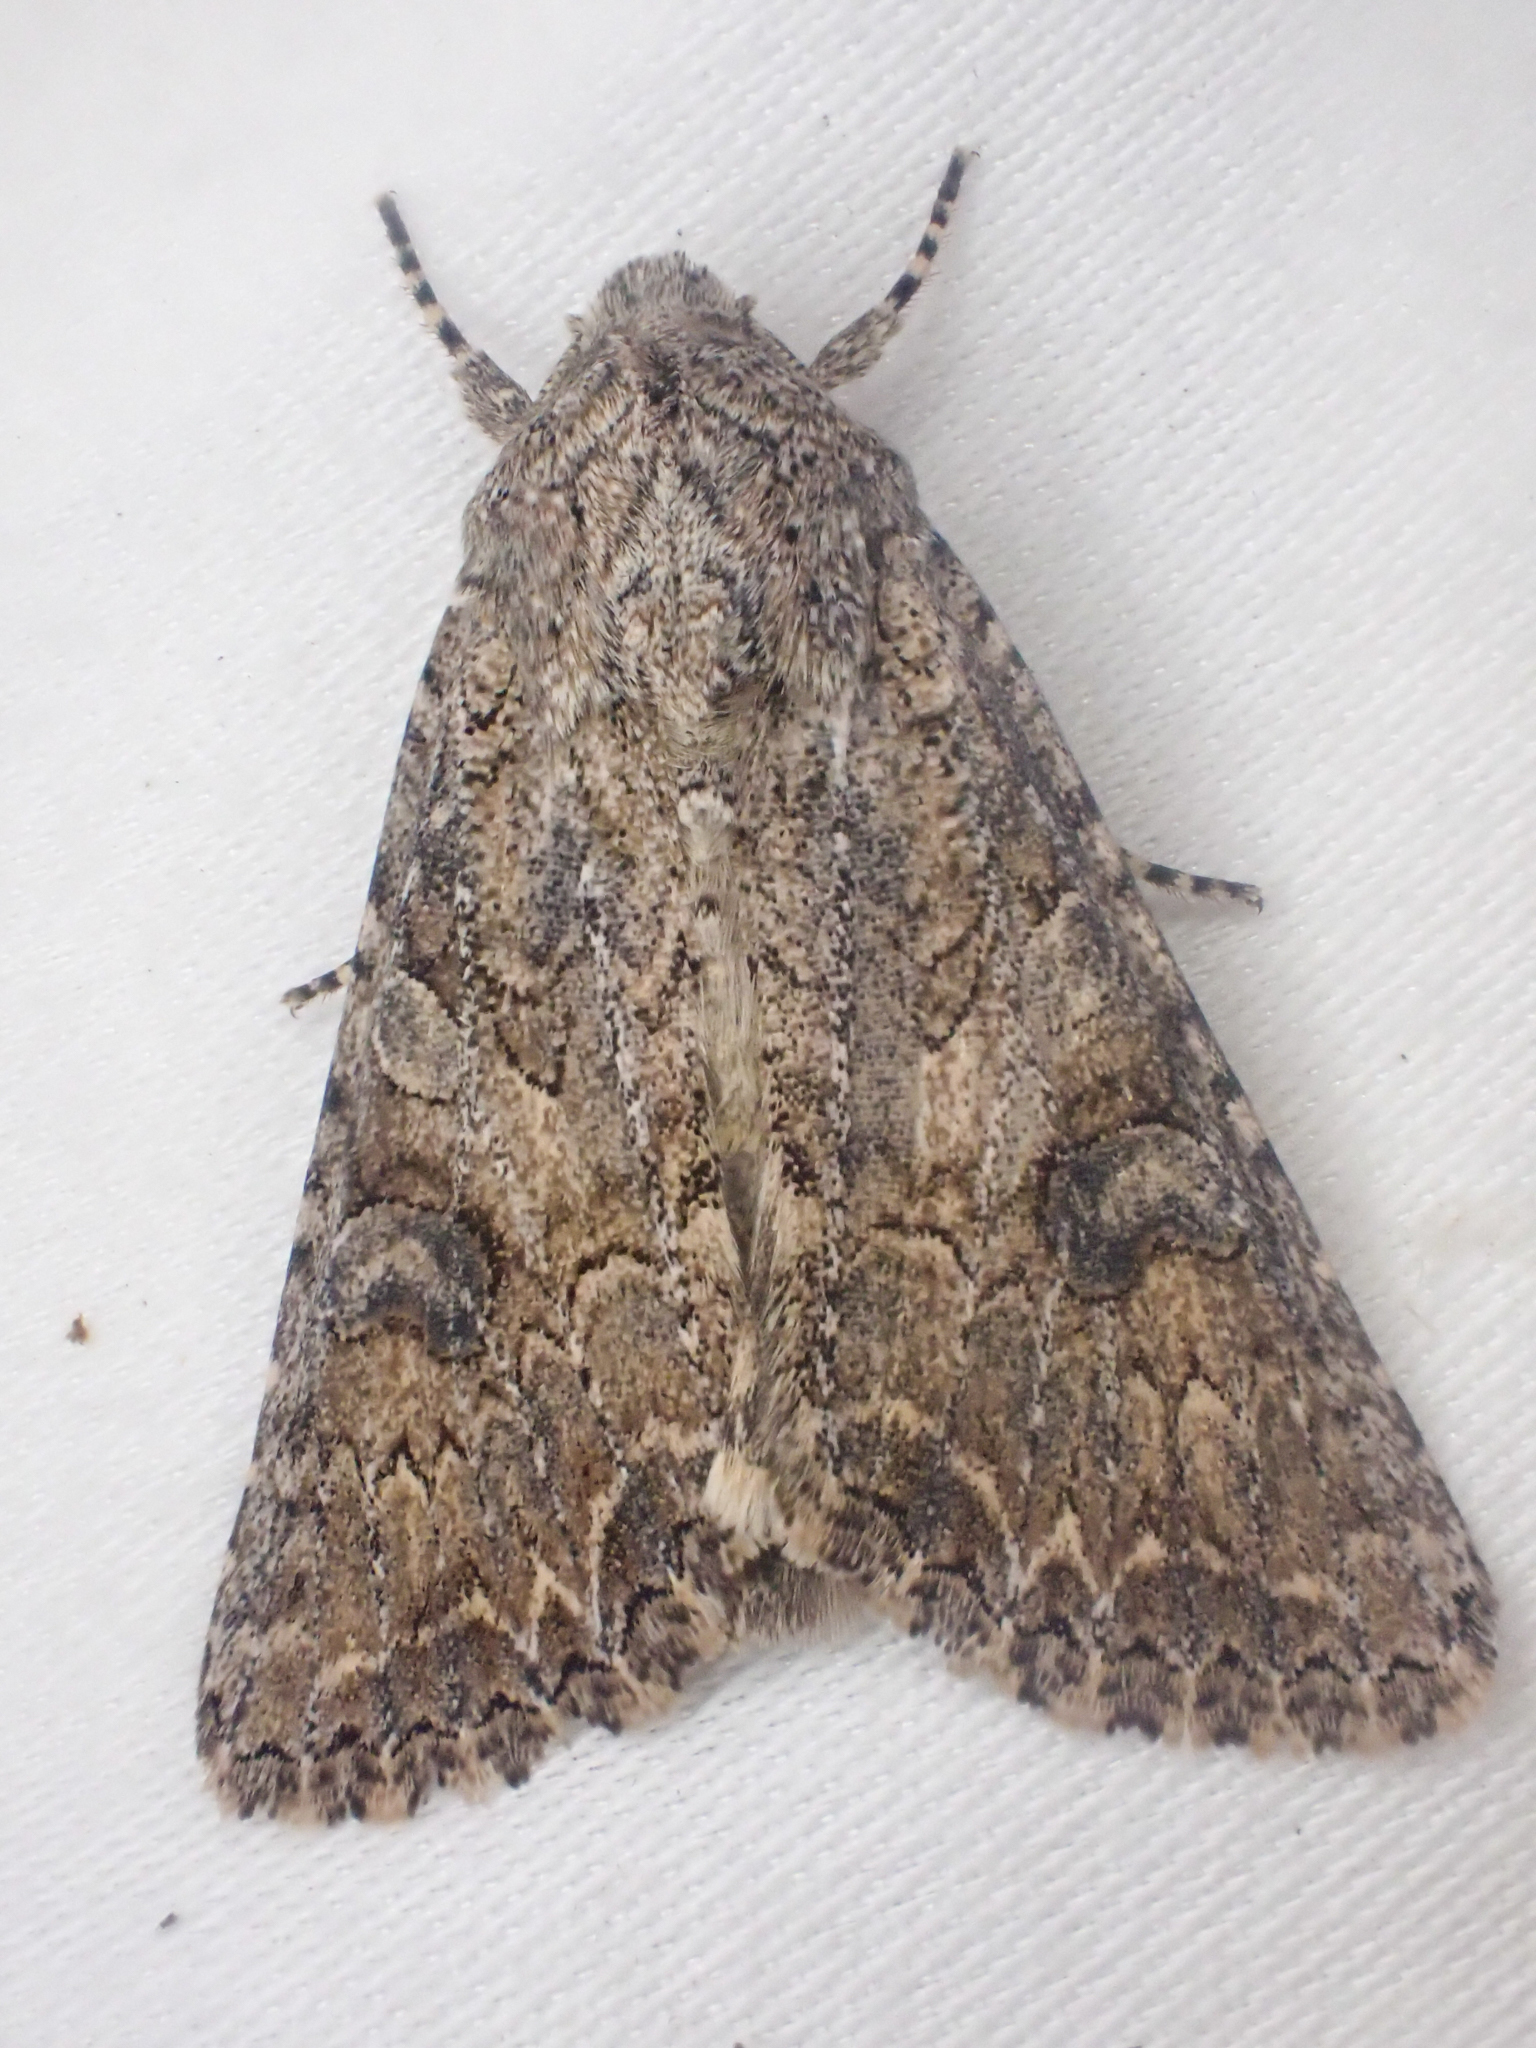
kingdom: Animalia
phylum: Arthropoda
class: Insecta
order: Lepidoptera
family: Noctuidae
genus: Anarta
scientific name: Anarta trifolii
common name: Clover cutworm moth
